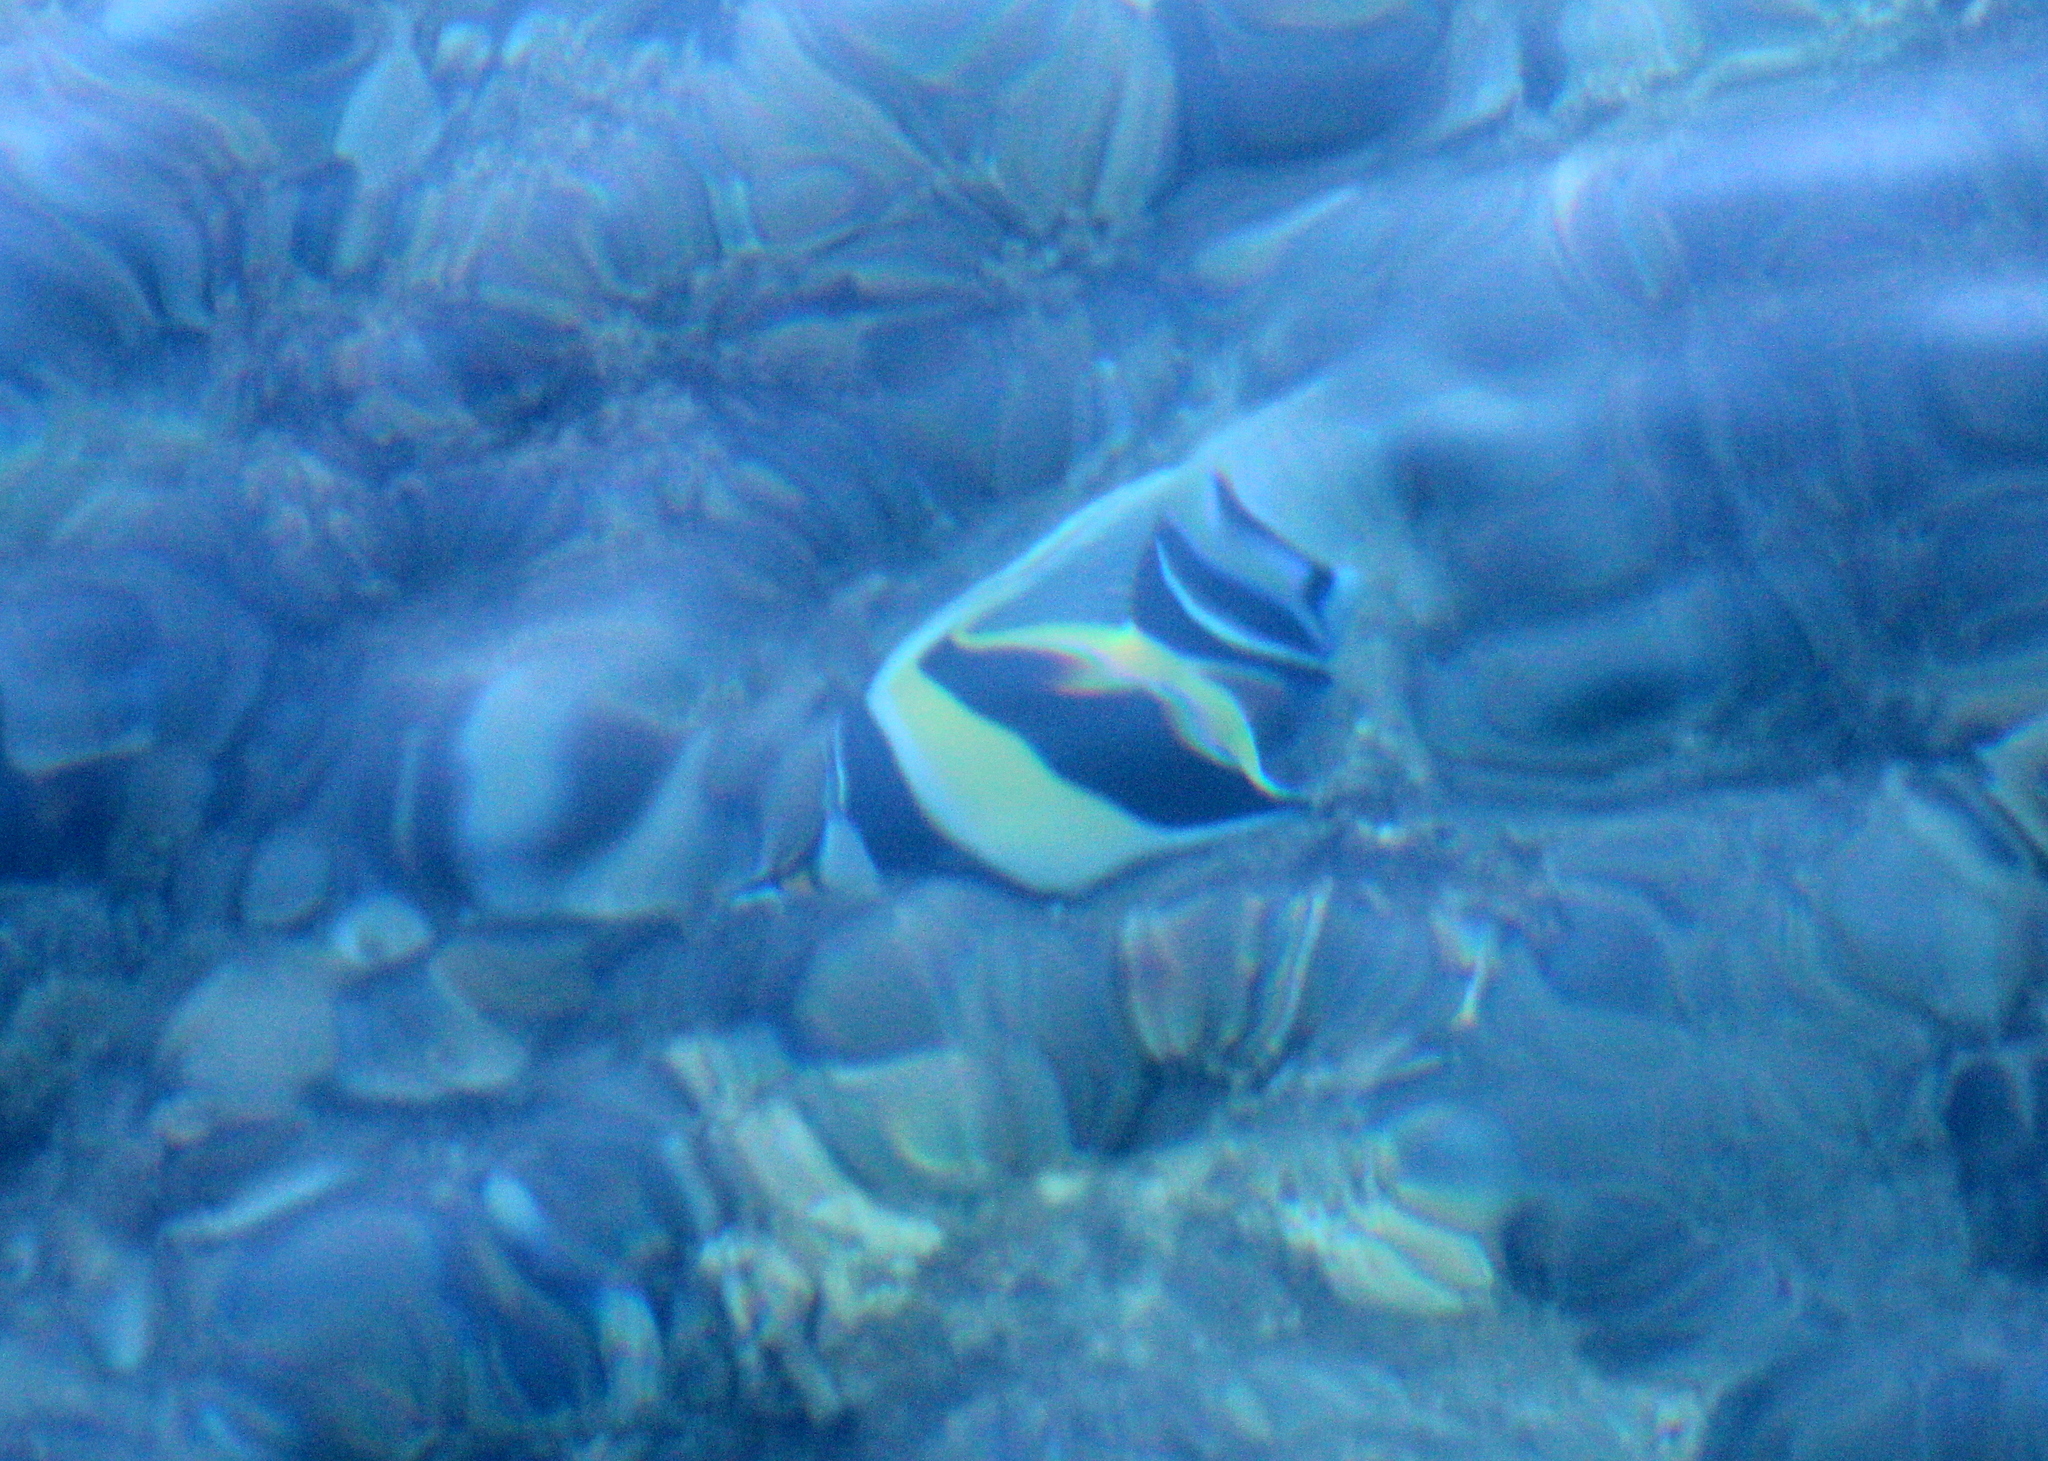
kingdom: Animalia
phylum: Chordata
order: Perciformes
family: Zanclidae
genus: Zanclus
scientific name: Zanclus cornutus
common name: Moorish idol
